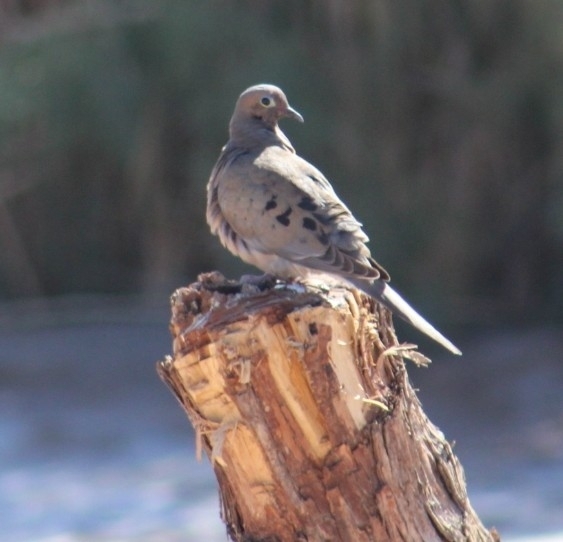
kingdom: Animalia
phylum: Chordata
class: Aves
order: Columbiformes
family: Columbidae
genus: Zenaida
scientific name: Zenaida macroura
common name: Mourning dove
